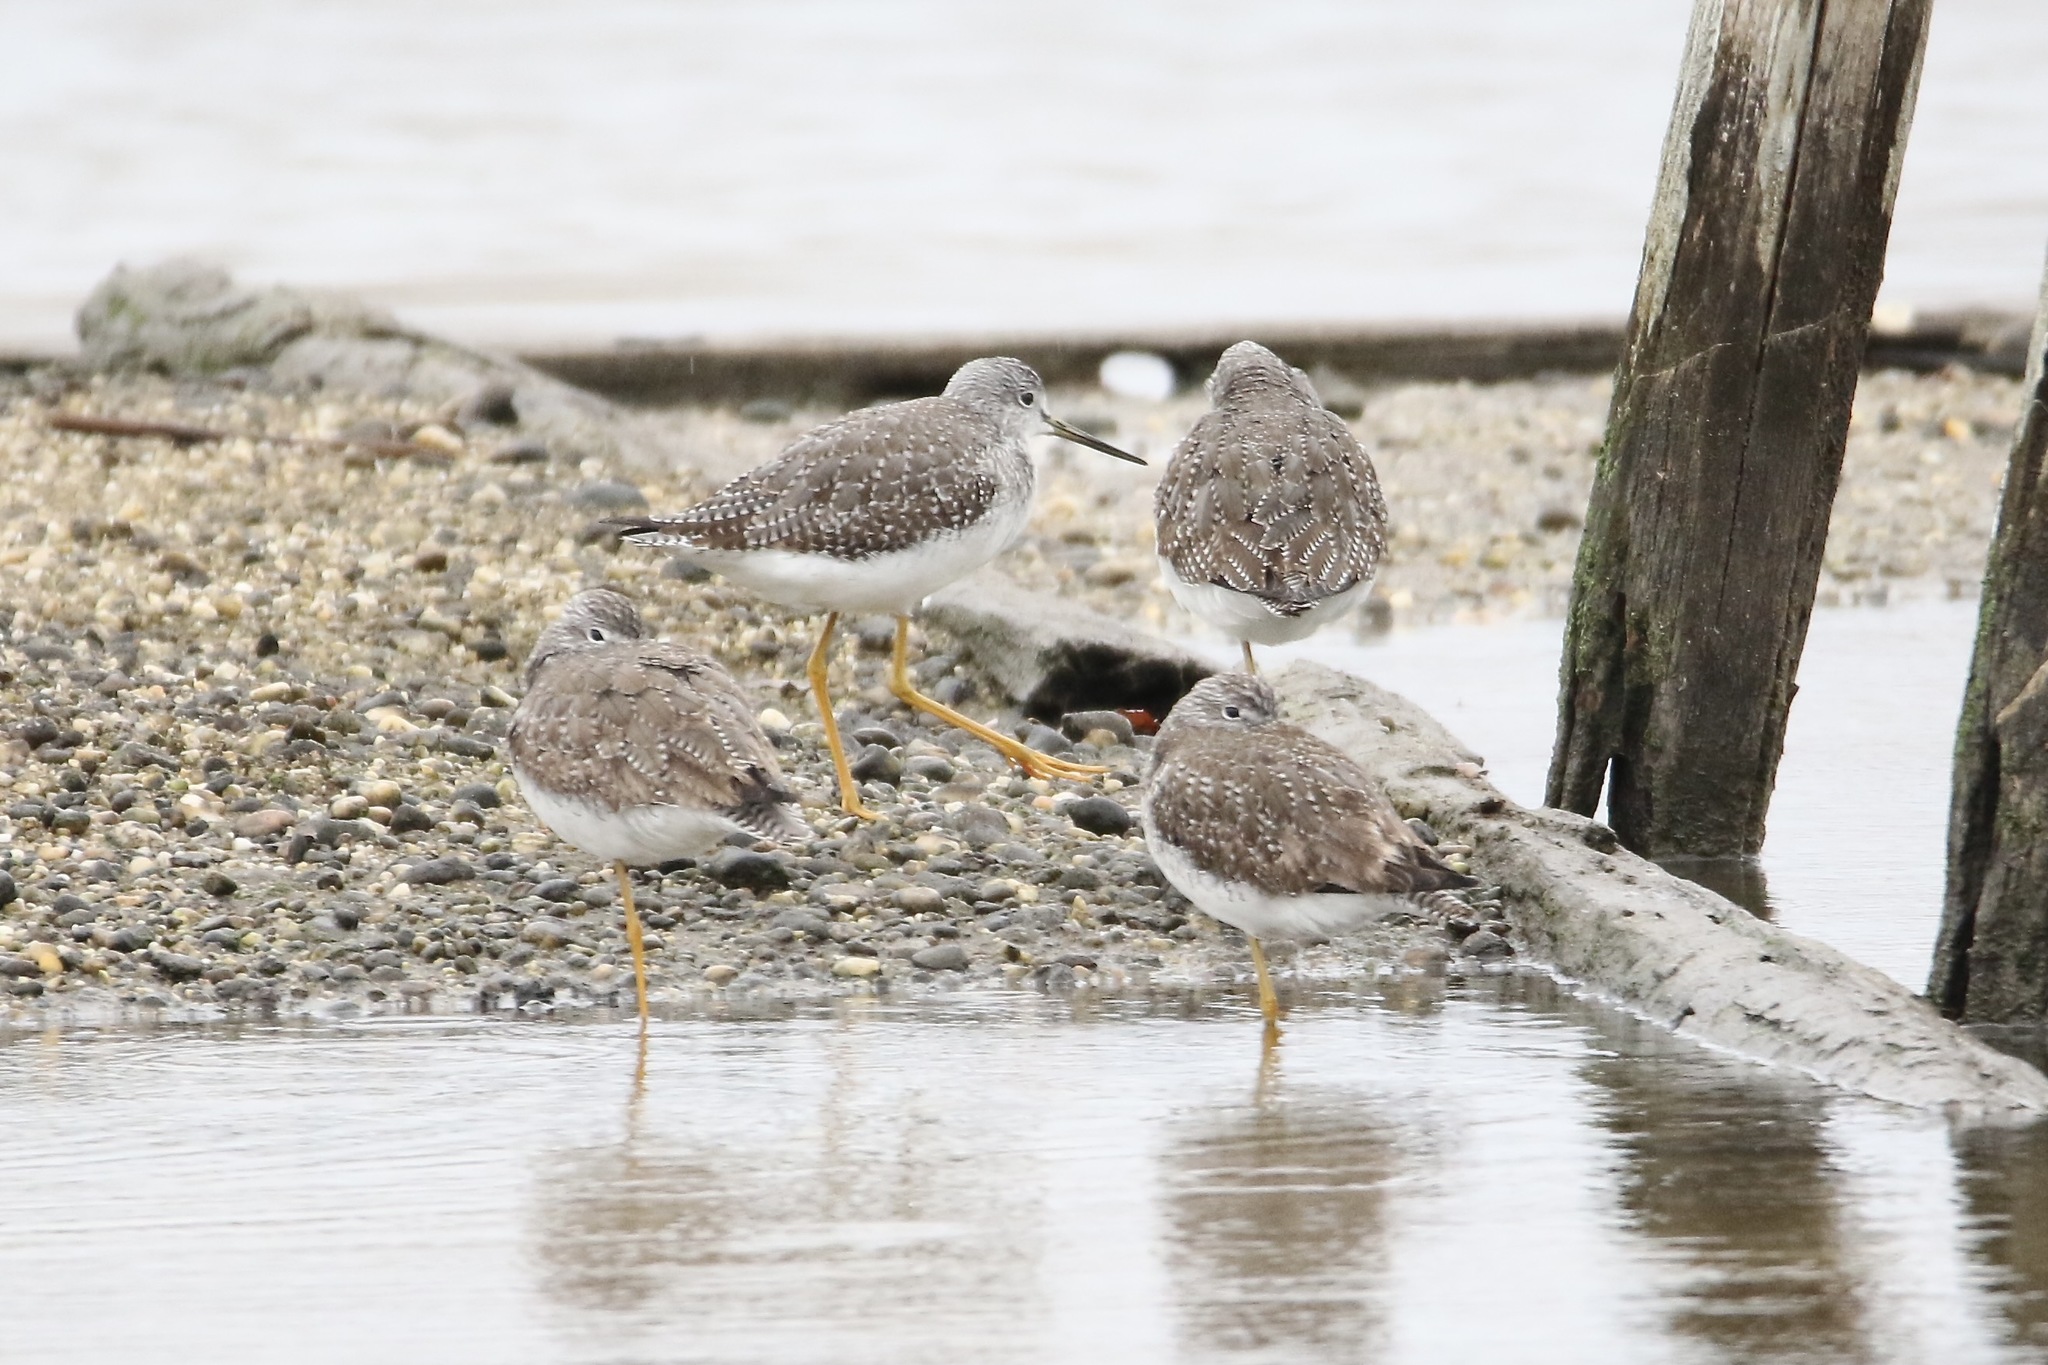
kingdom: Animalia
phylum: Chordata
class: Aves
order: Charadriiformes
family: Scolopacidae
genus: Tringa
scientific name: Tringa melanoleuca
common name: Greater yellowlegs
